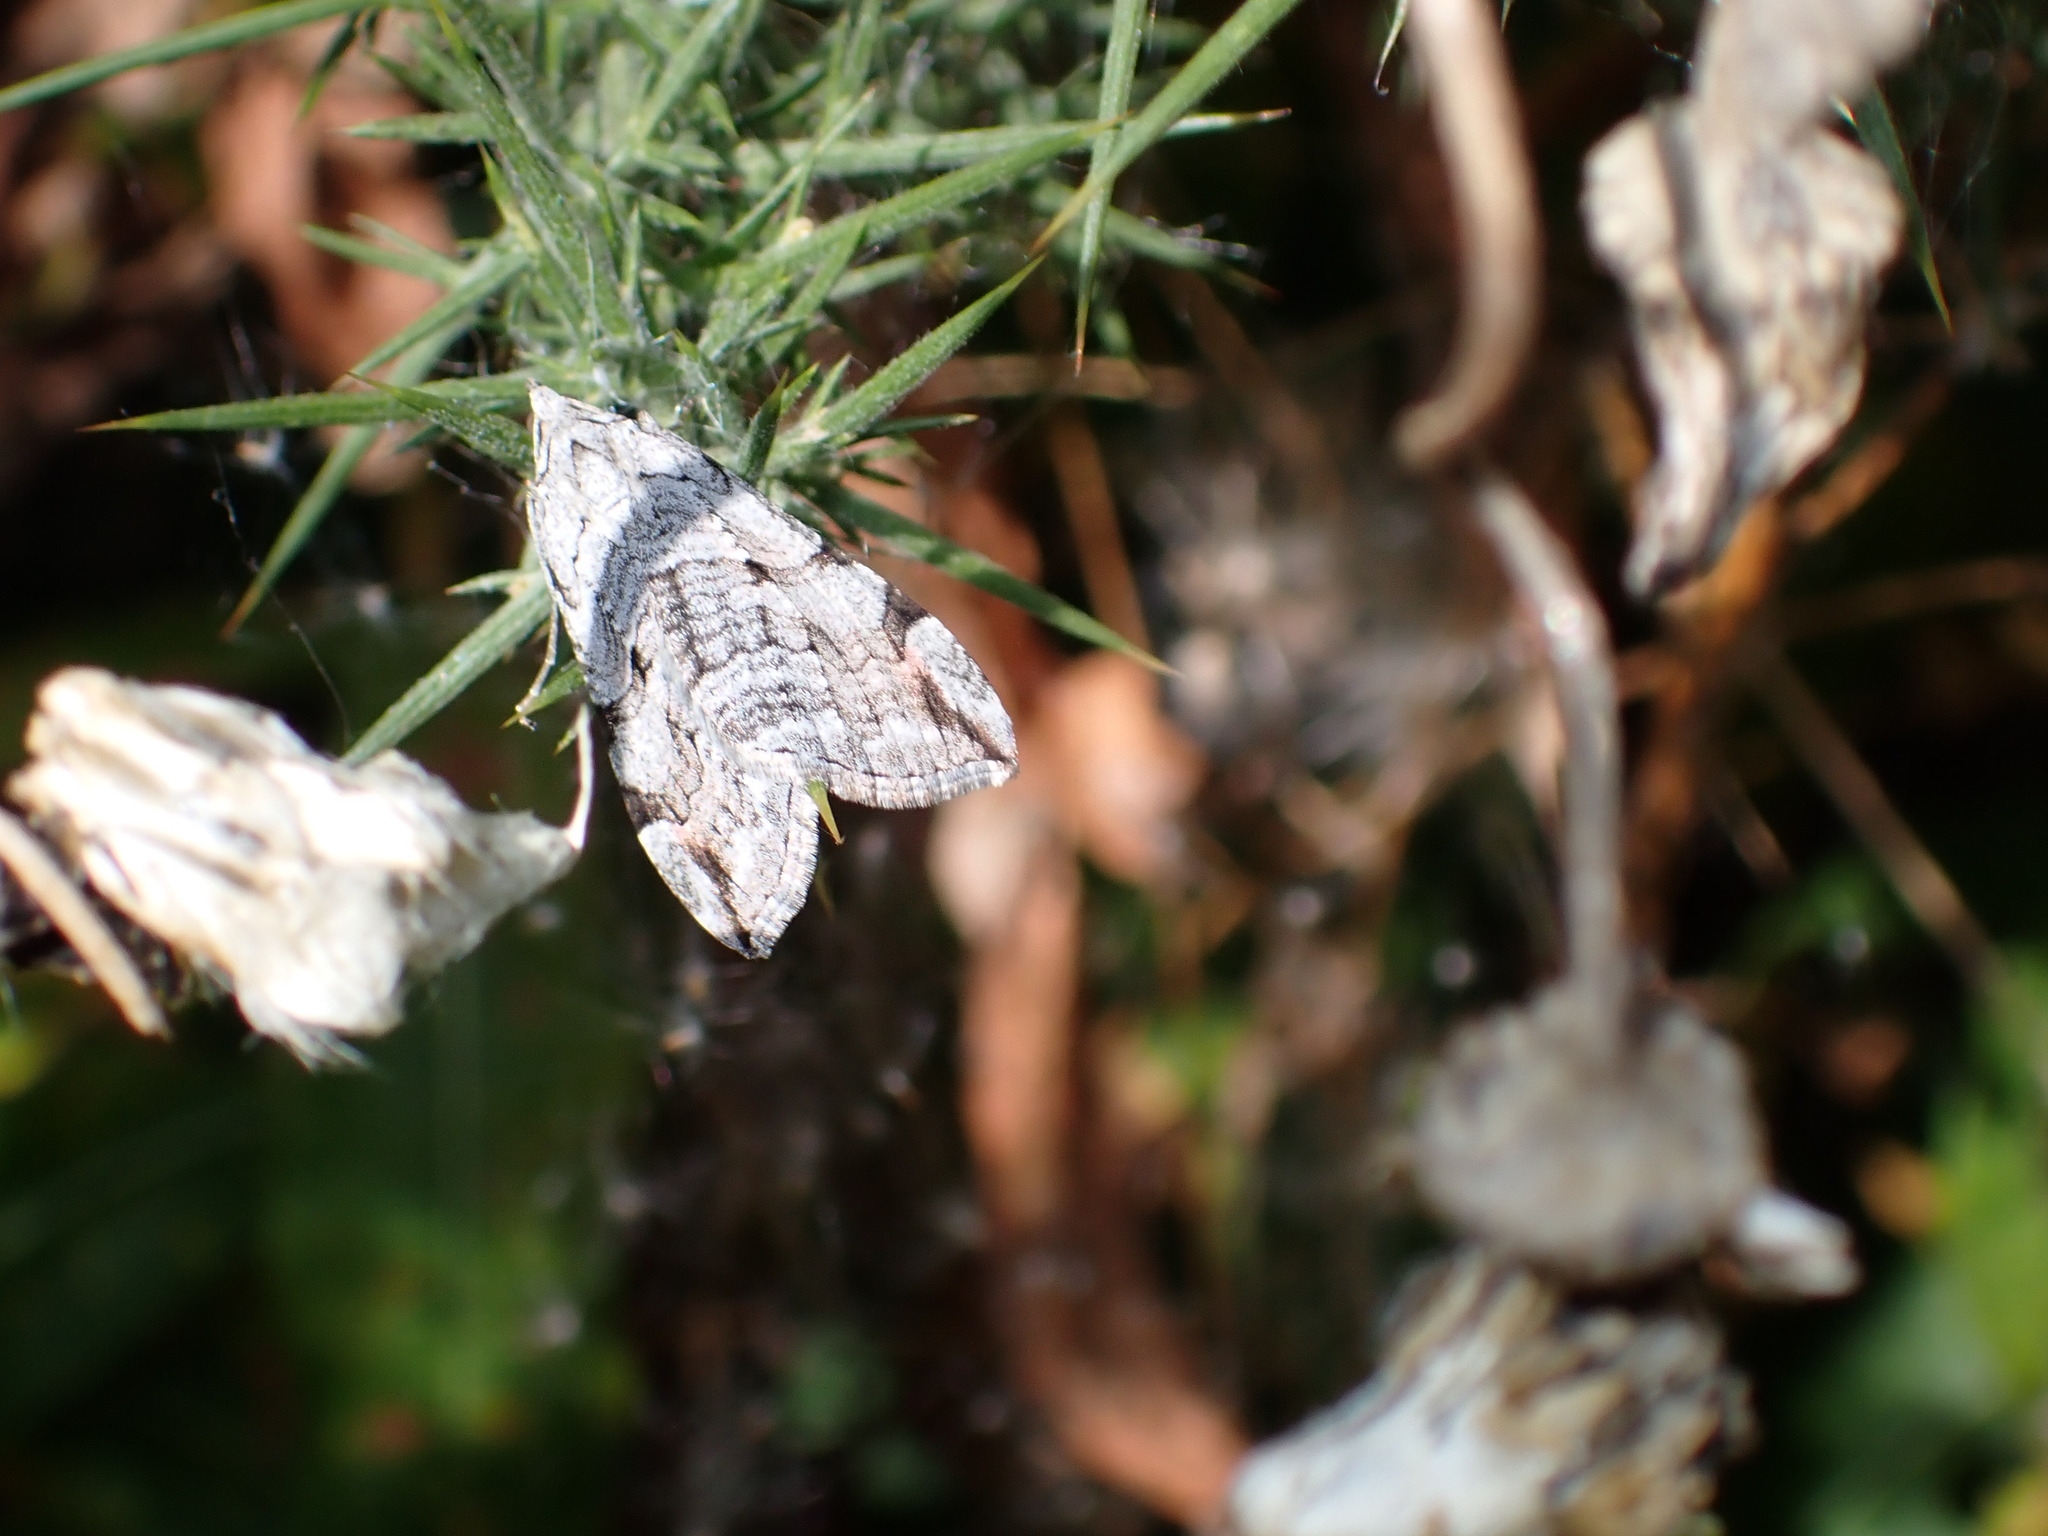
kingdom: Animalia
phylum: Arthropoda
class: Insecta
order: Lepidoptera
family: Geometridae
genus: Aplocera
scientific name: Aplocera plagiata
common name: Treble-bar
